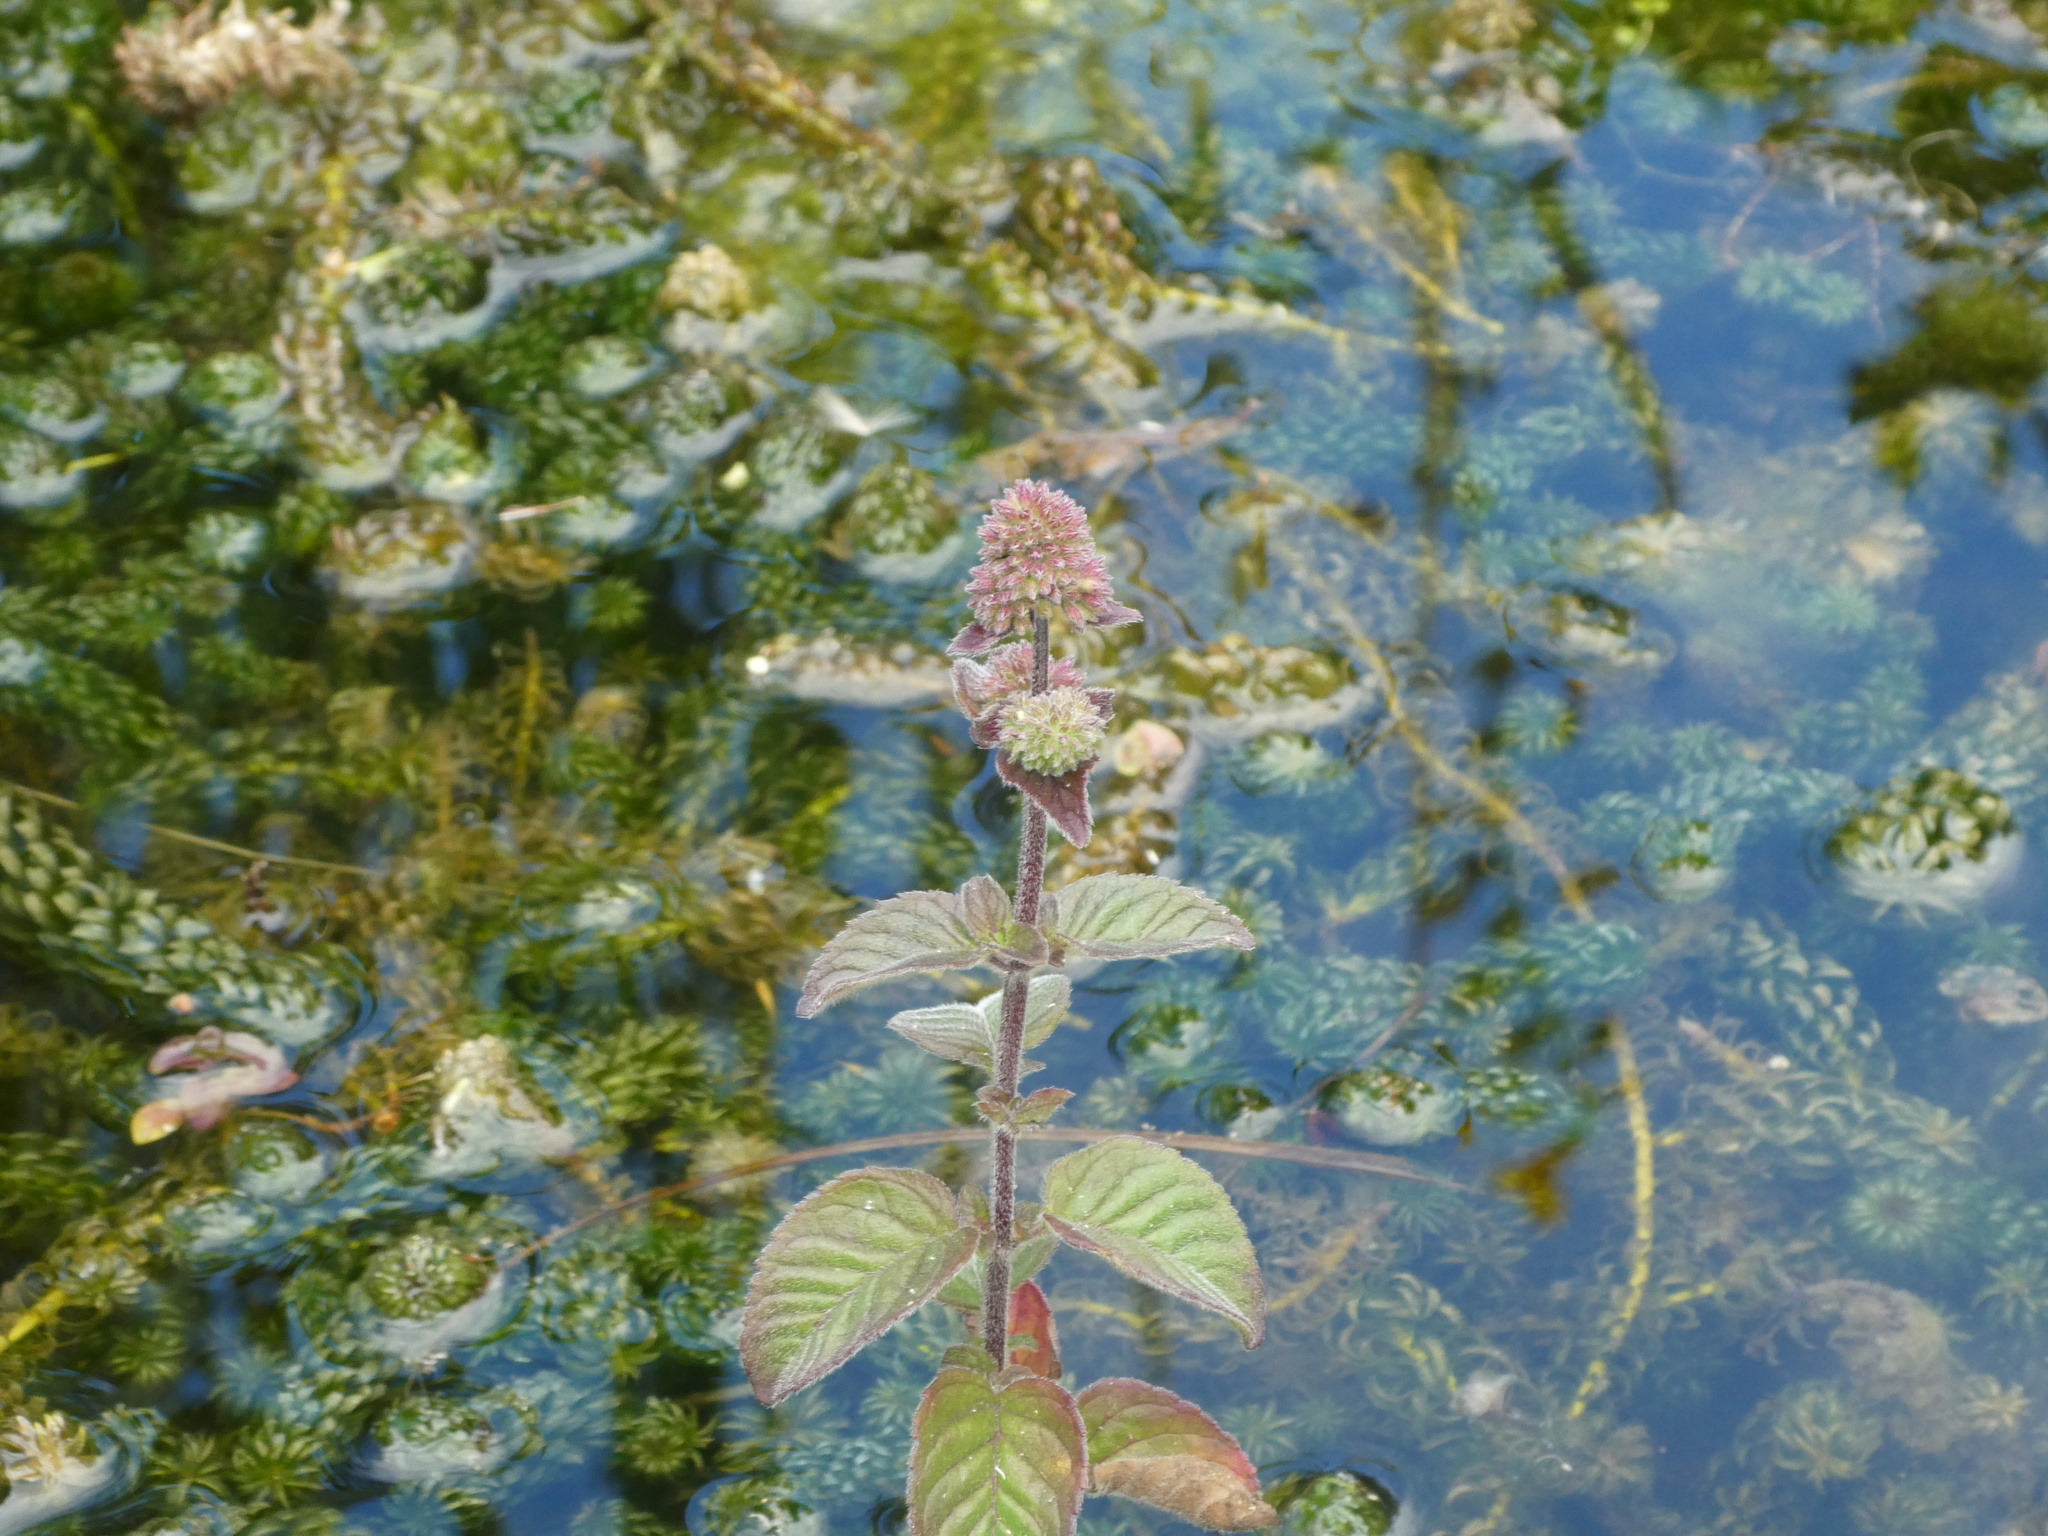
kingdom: Plantae
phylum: Tracheophyta
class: Magnoliopsida
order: Lamiales
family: Lamiaceae
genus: Mentha
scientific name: Mentha aquatica
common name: Water mint
